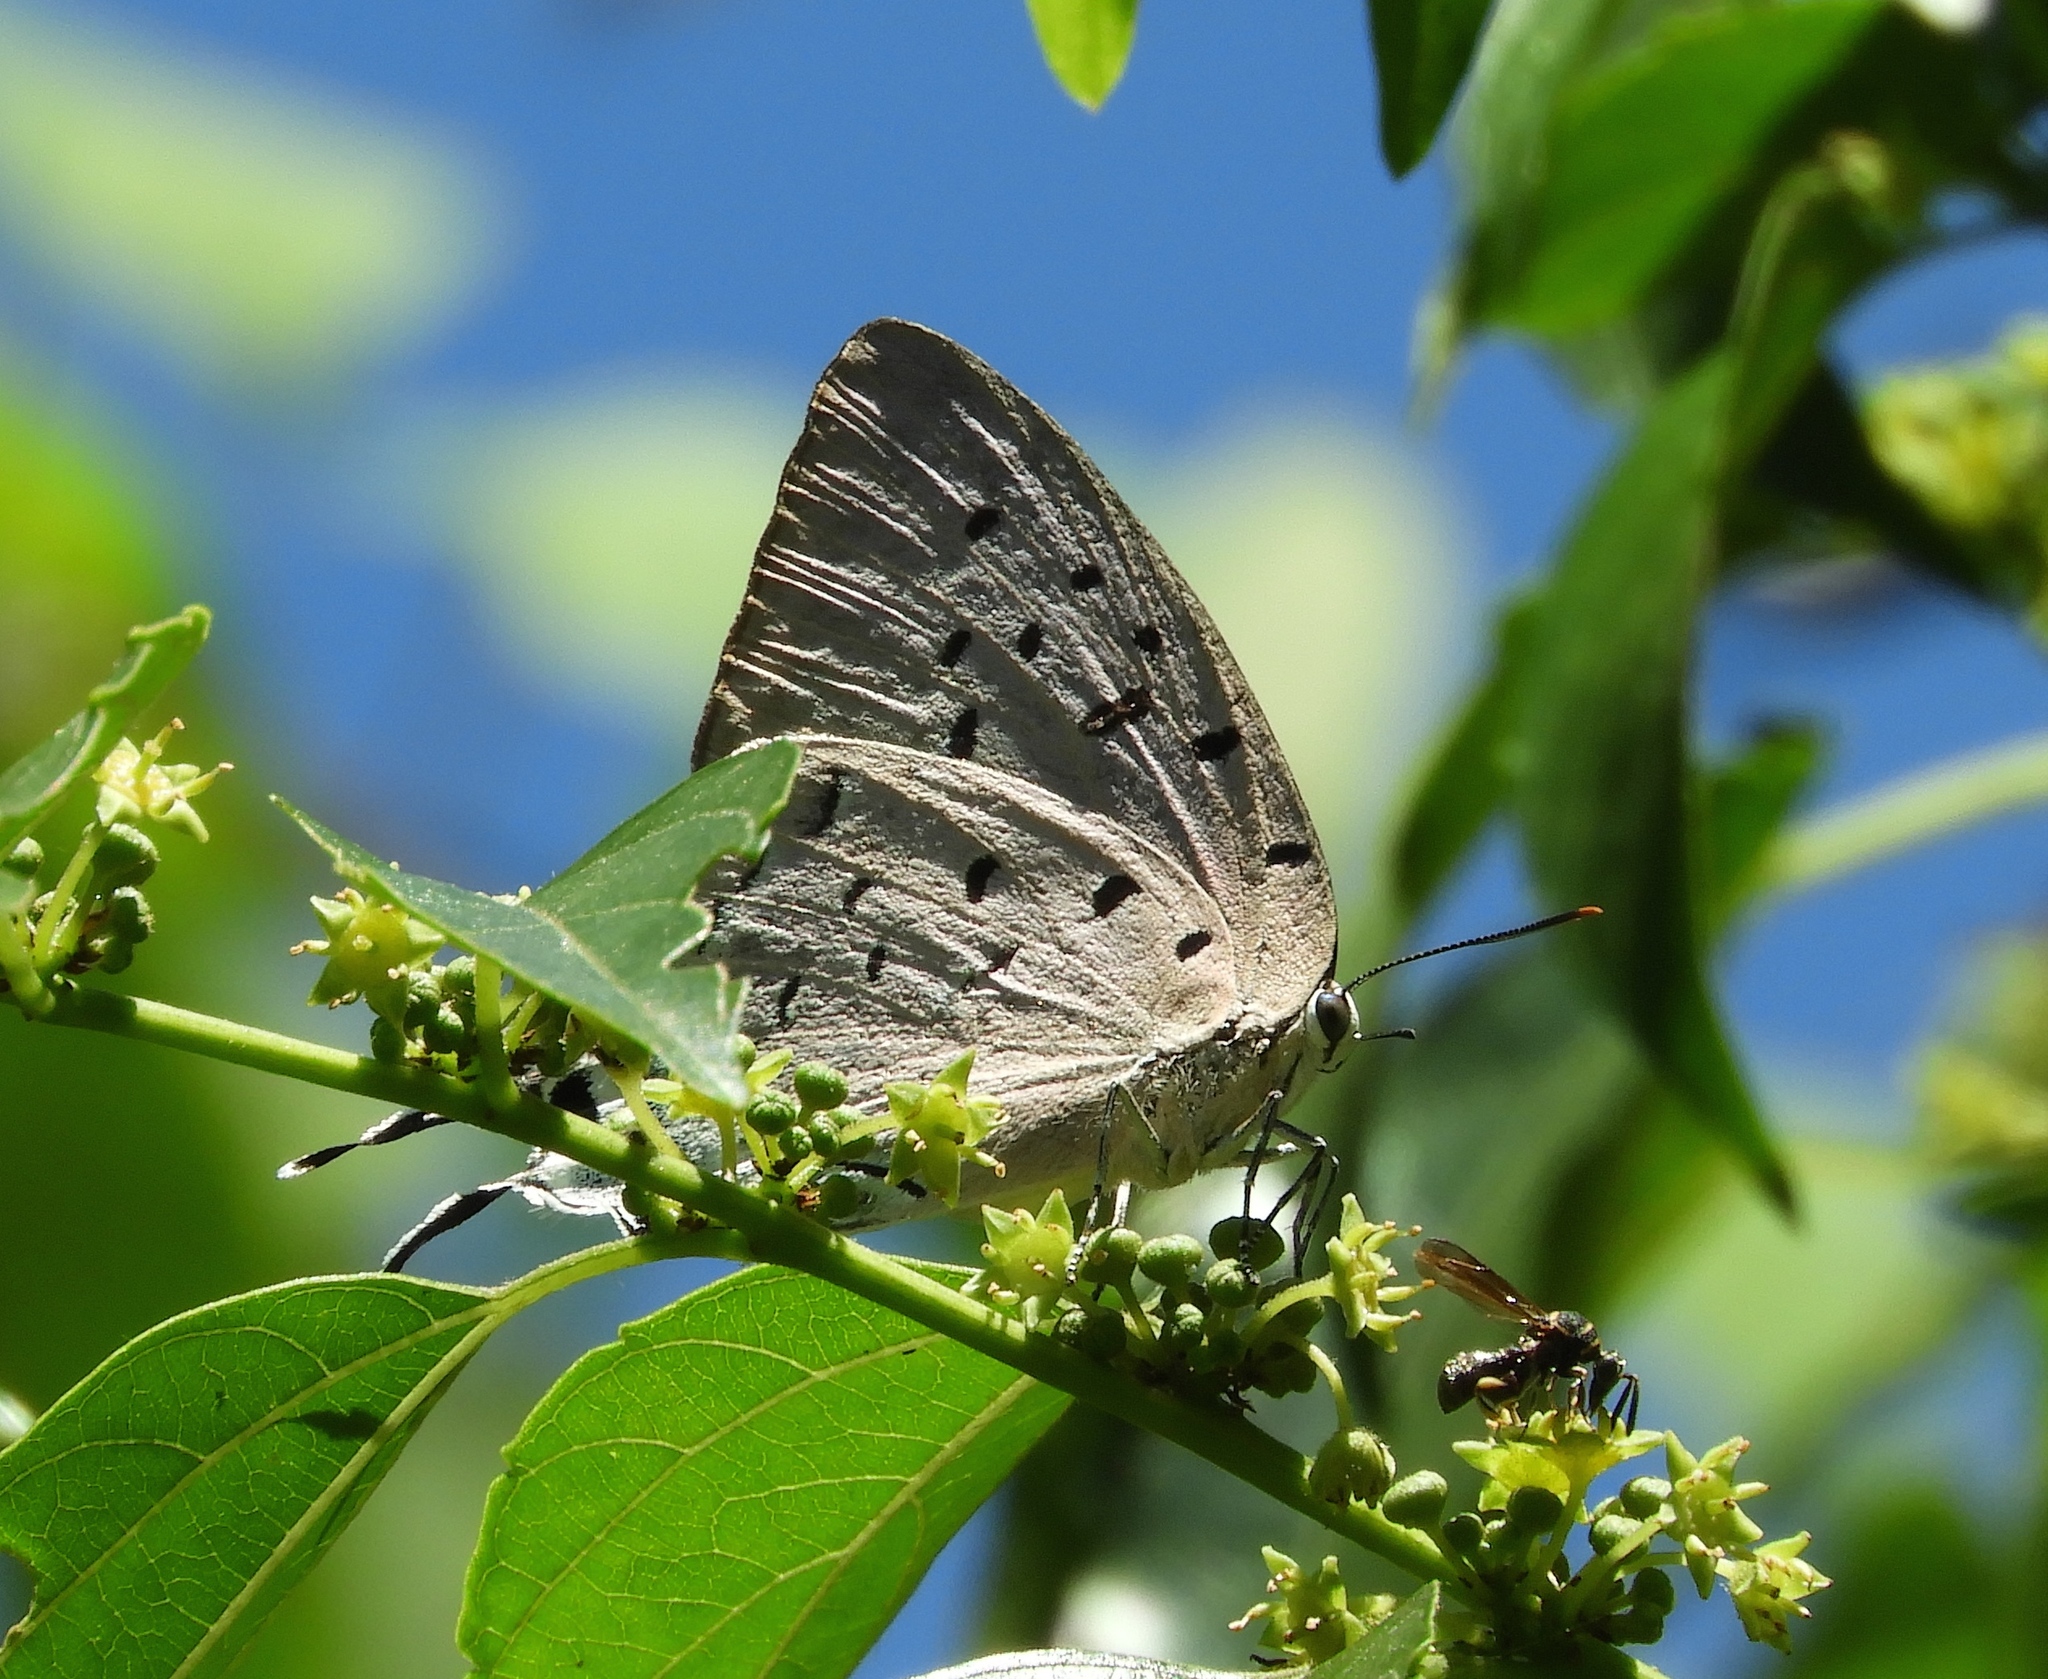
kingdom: Animalia
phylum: Arthropoda
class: Insecta
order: Lepidoptera
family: Lycaenidae
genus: Pseudolycaena
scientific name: Pseudolycaena damo
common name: Sky-blue hairstreak
